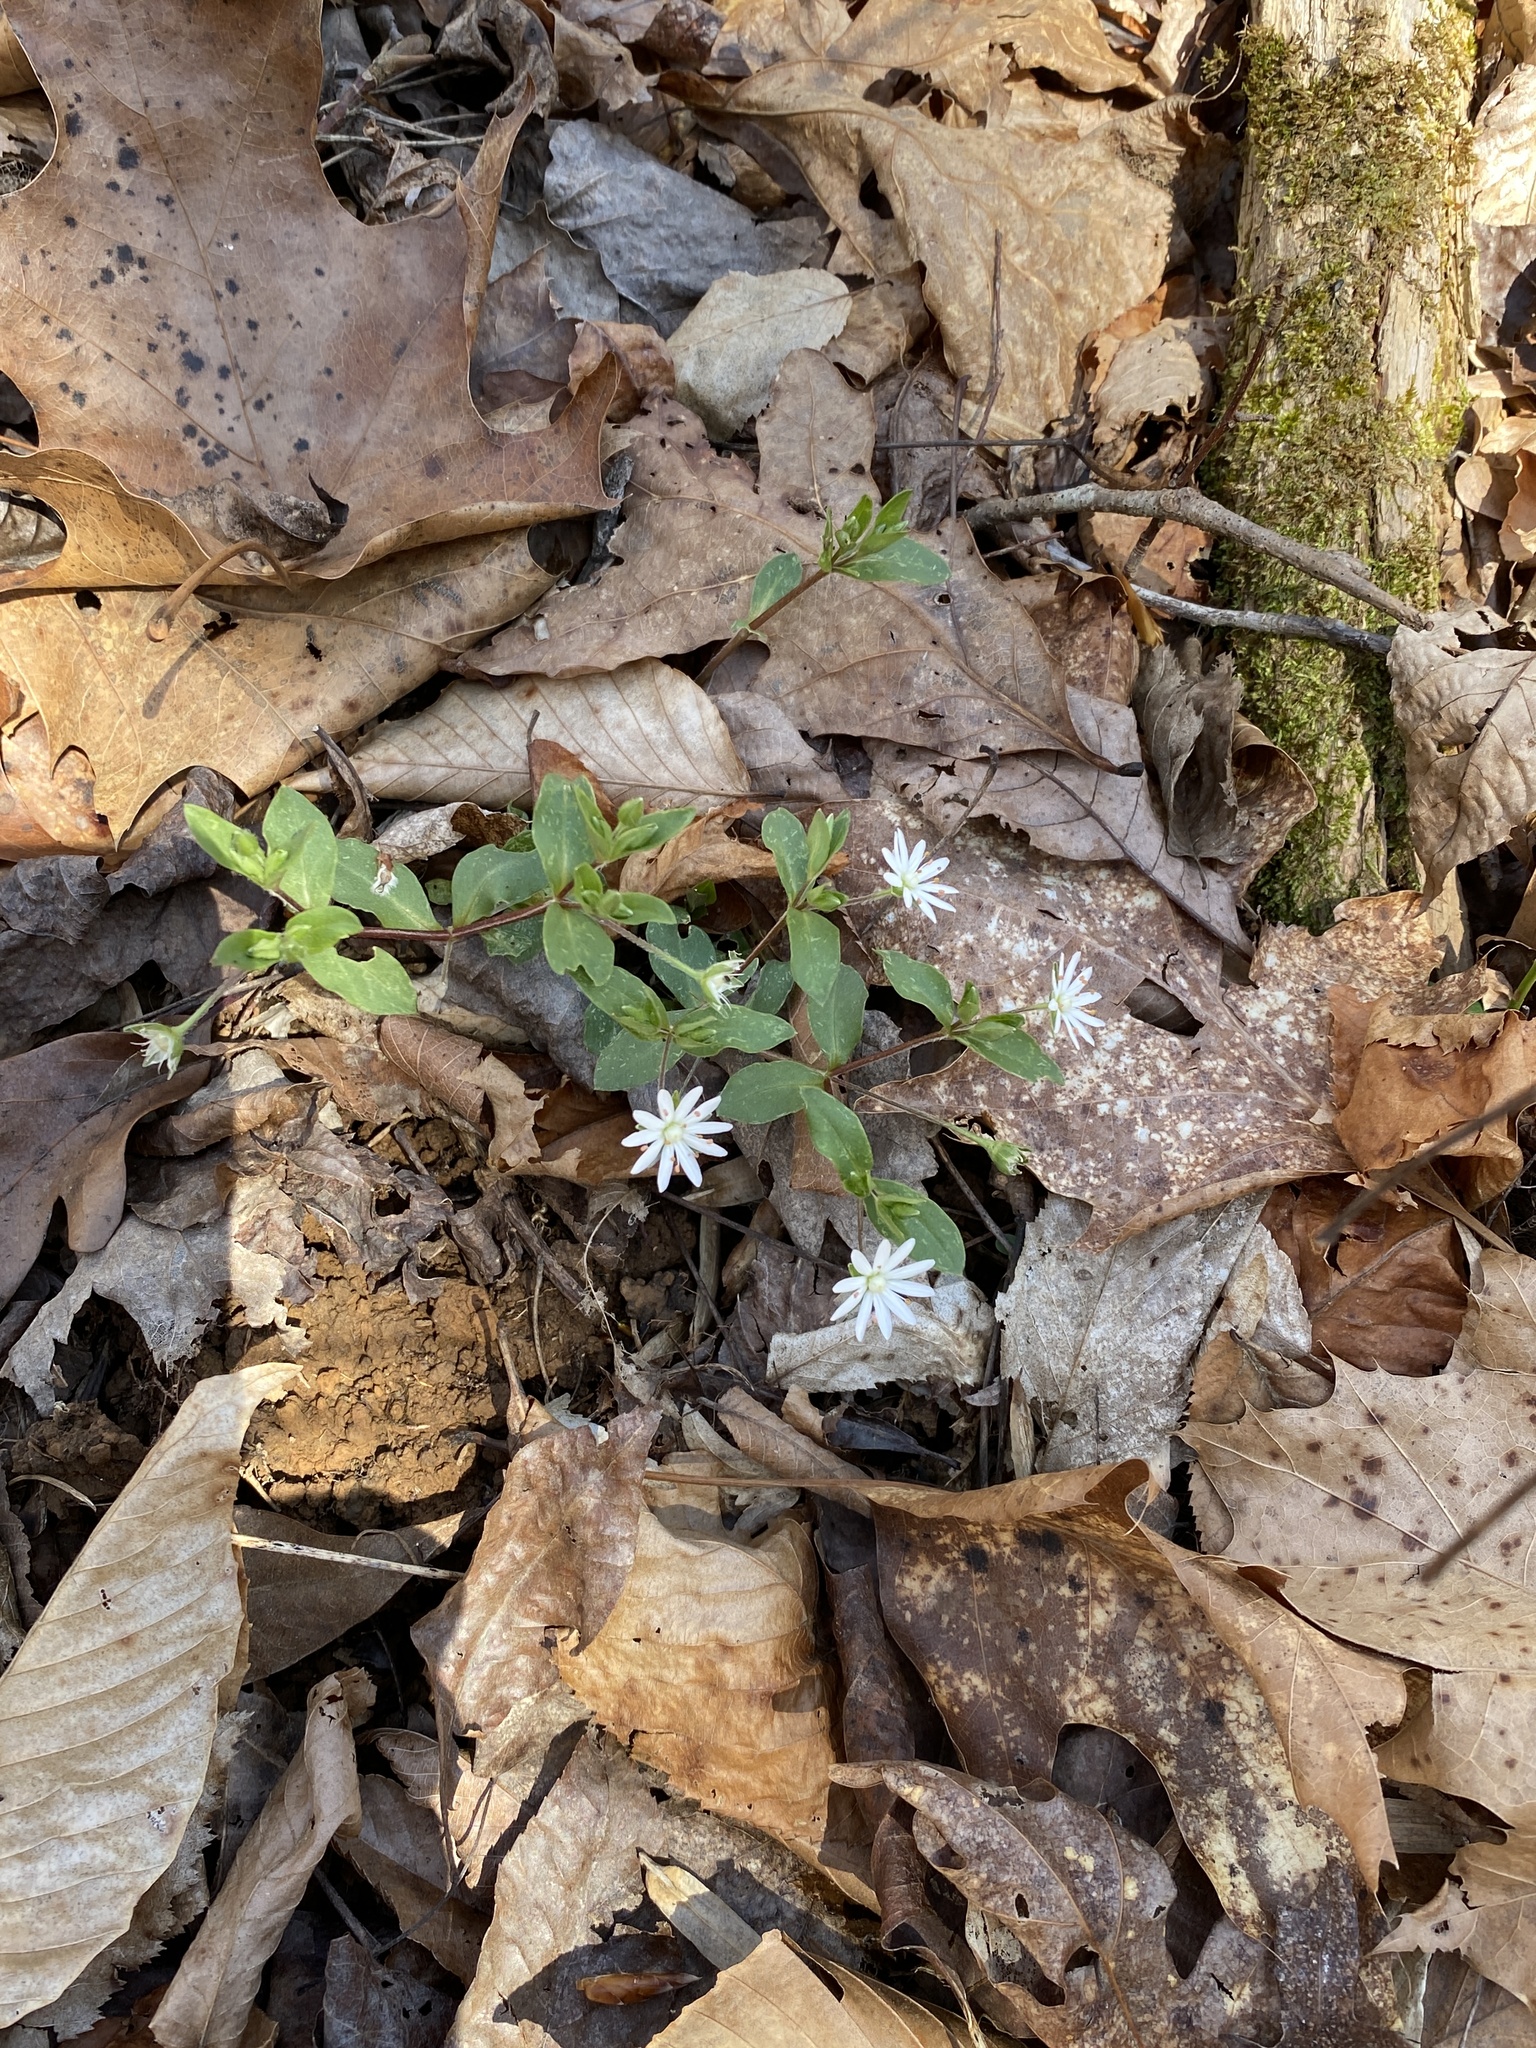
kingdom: Plantae
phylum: Tracheophyta
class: Magnoliopsida
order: Caryophyllales
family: Caryophyllaceae
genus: Stellaria
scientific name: Stellaria pubera
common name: Star chickweed
